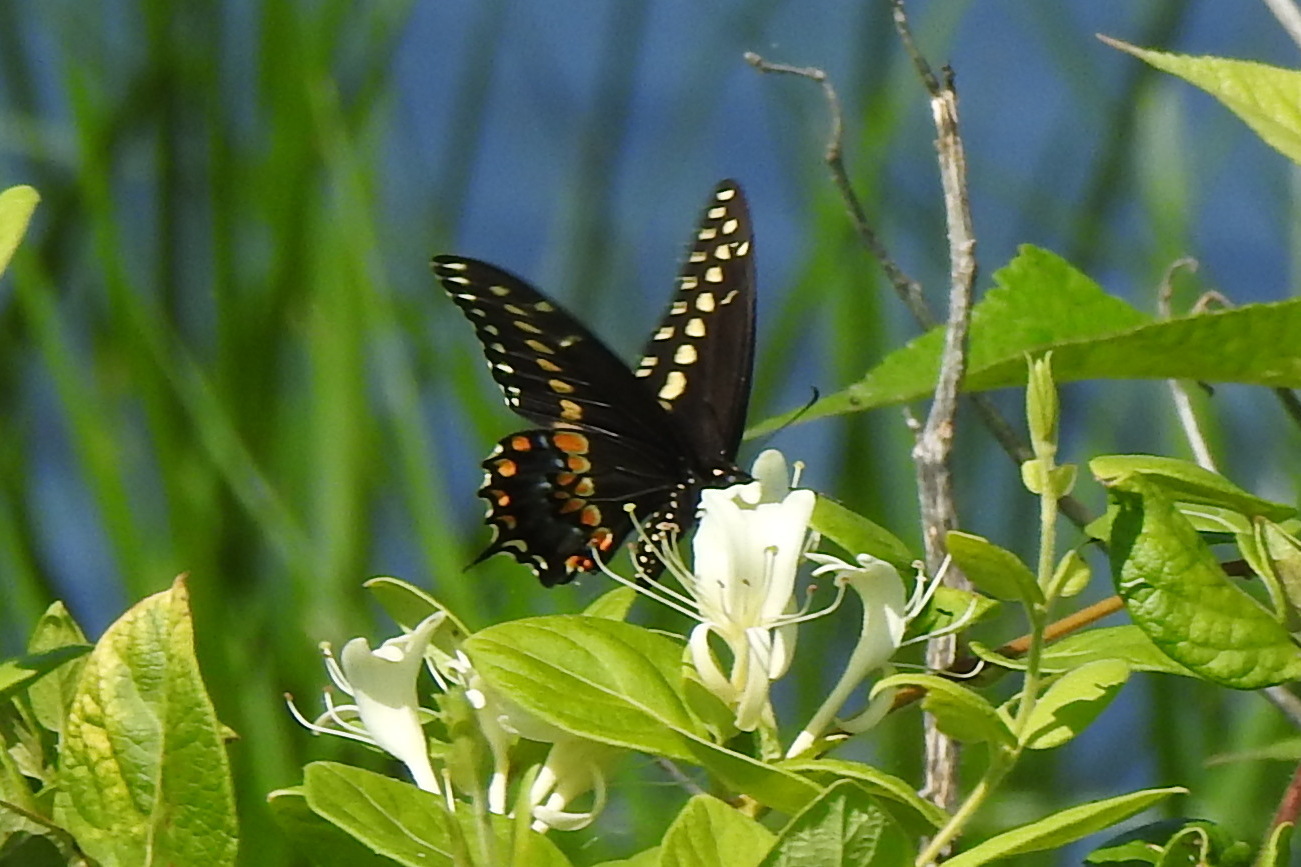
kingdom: Animalia
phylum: Arthropoda
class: Insecta
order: Lepidoptera
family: Papilionidae
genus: Papilio
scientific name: Papilio polyxenes
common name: Black swallowtail
